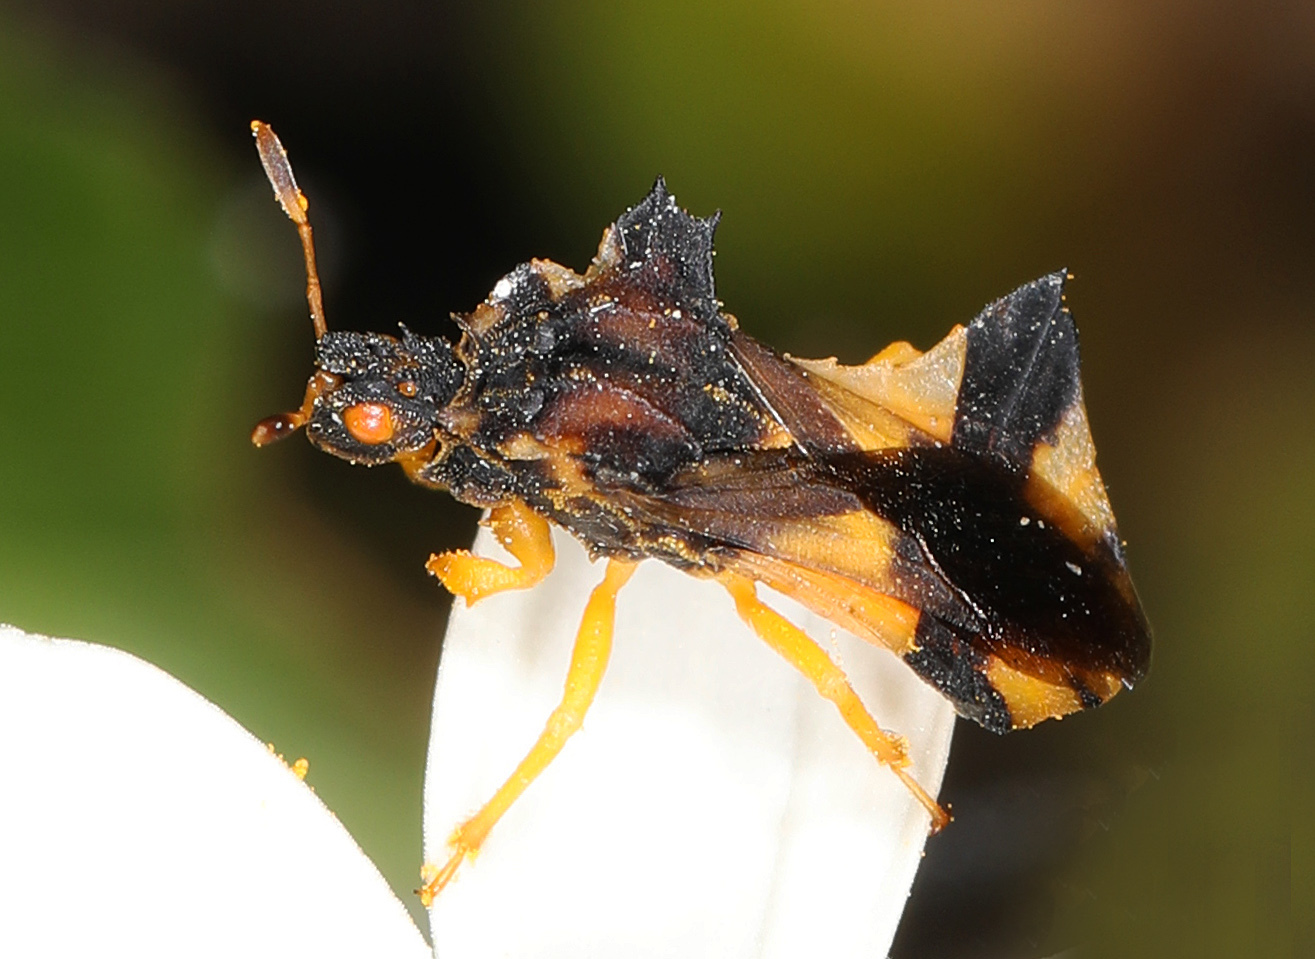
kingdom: Animalia
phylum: Arthropoda
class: Insecta
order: Hemiptera
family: Reduviidae
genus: Phymata
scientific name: Phymata
